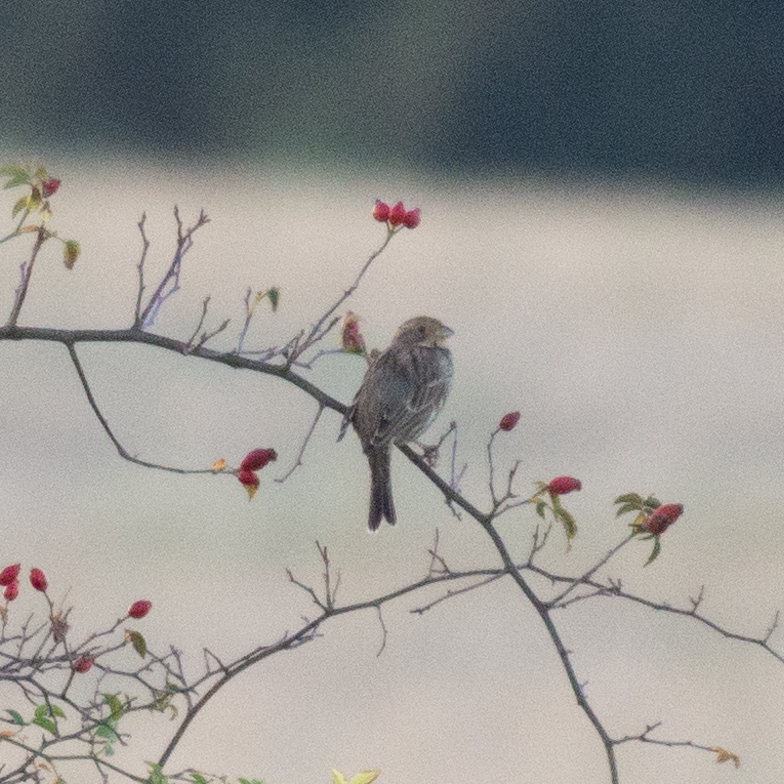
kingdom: Animalia
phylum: Chordata
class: Aves
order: Passeriformes
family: Emberizidae
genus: Emberiza
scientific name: Emberiza calandra
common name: Corn bunting
